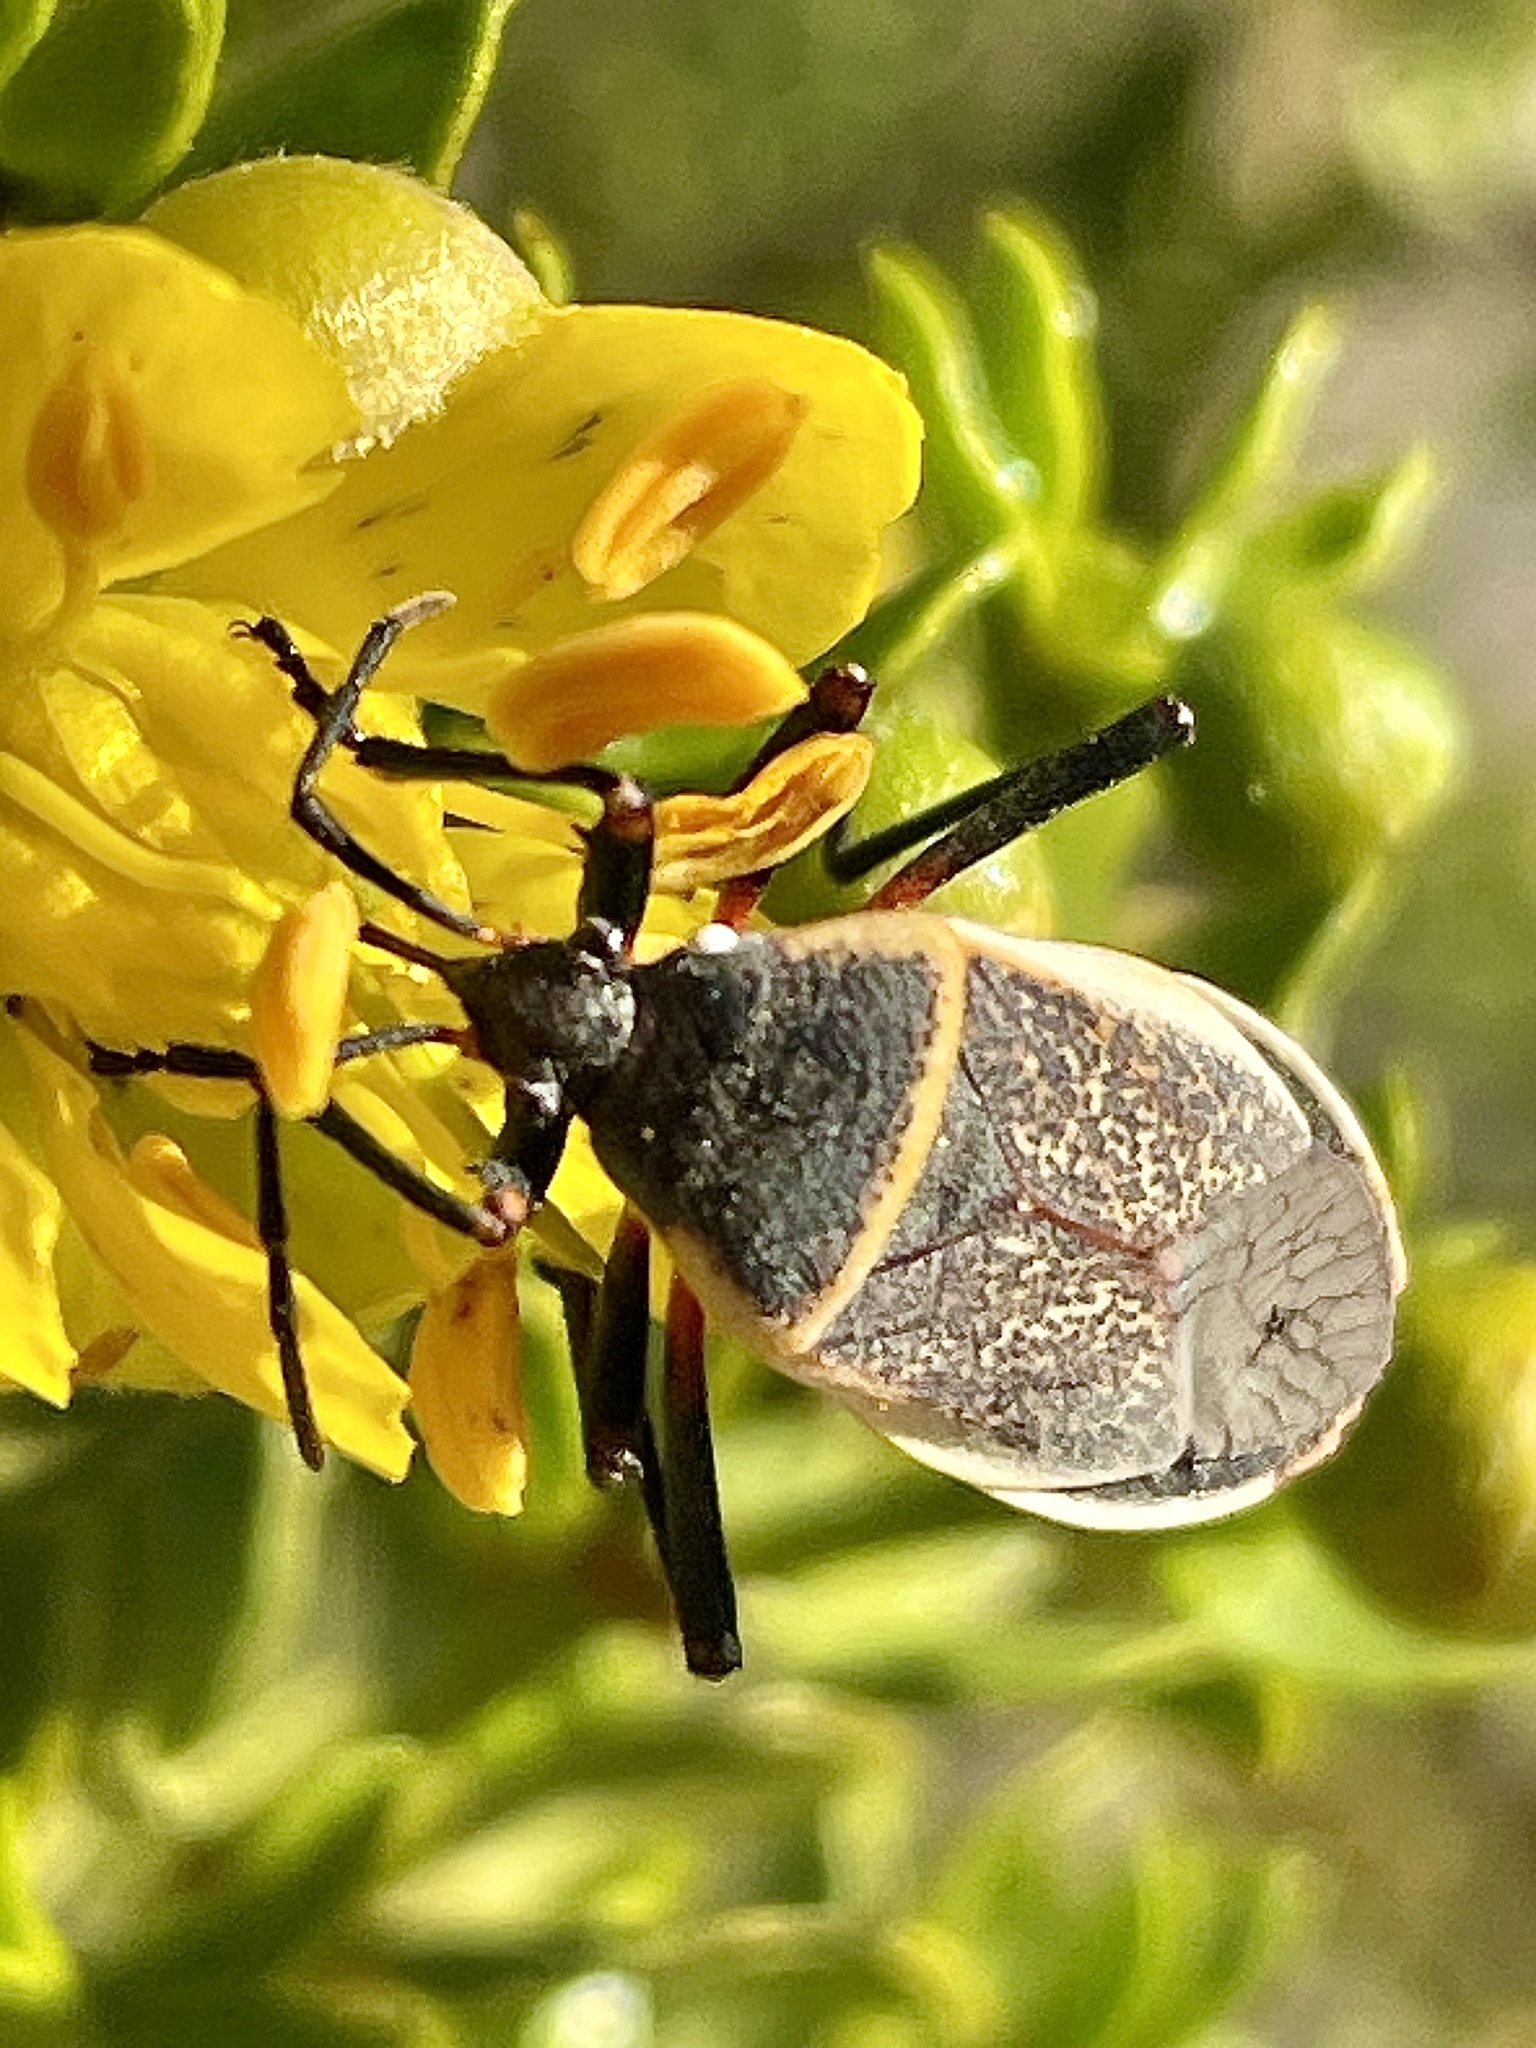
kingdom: Animalia
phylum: Arthropoda
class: Insecta
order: Hemiptera
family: Largidae
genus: Largus
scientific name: Largus californicus
